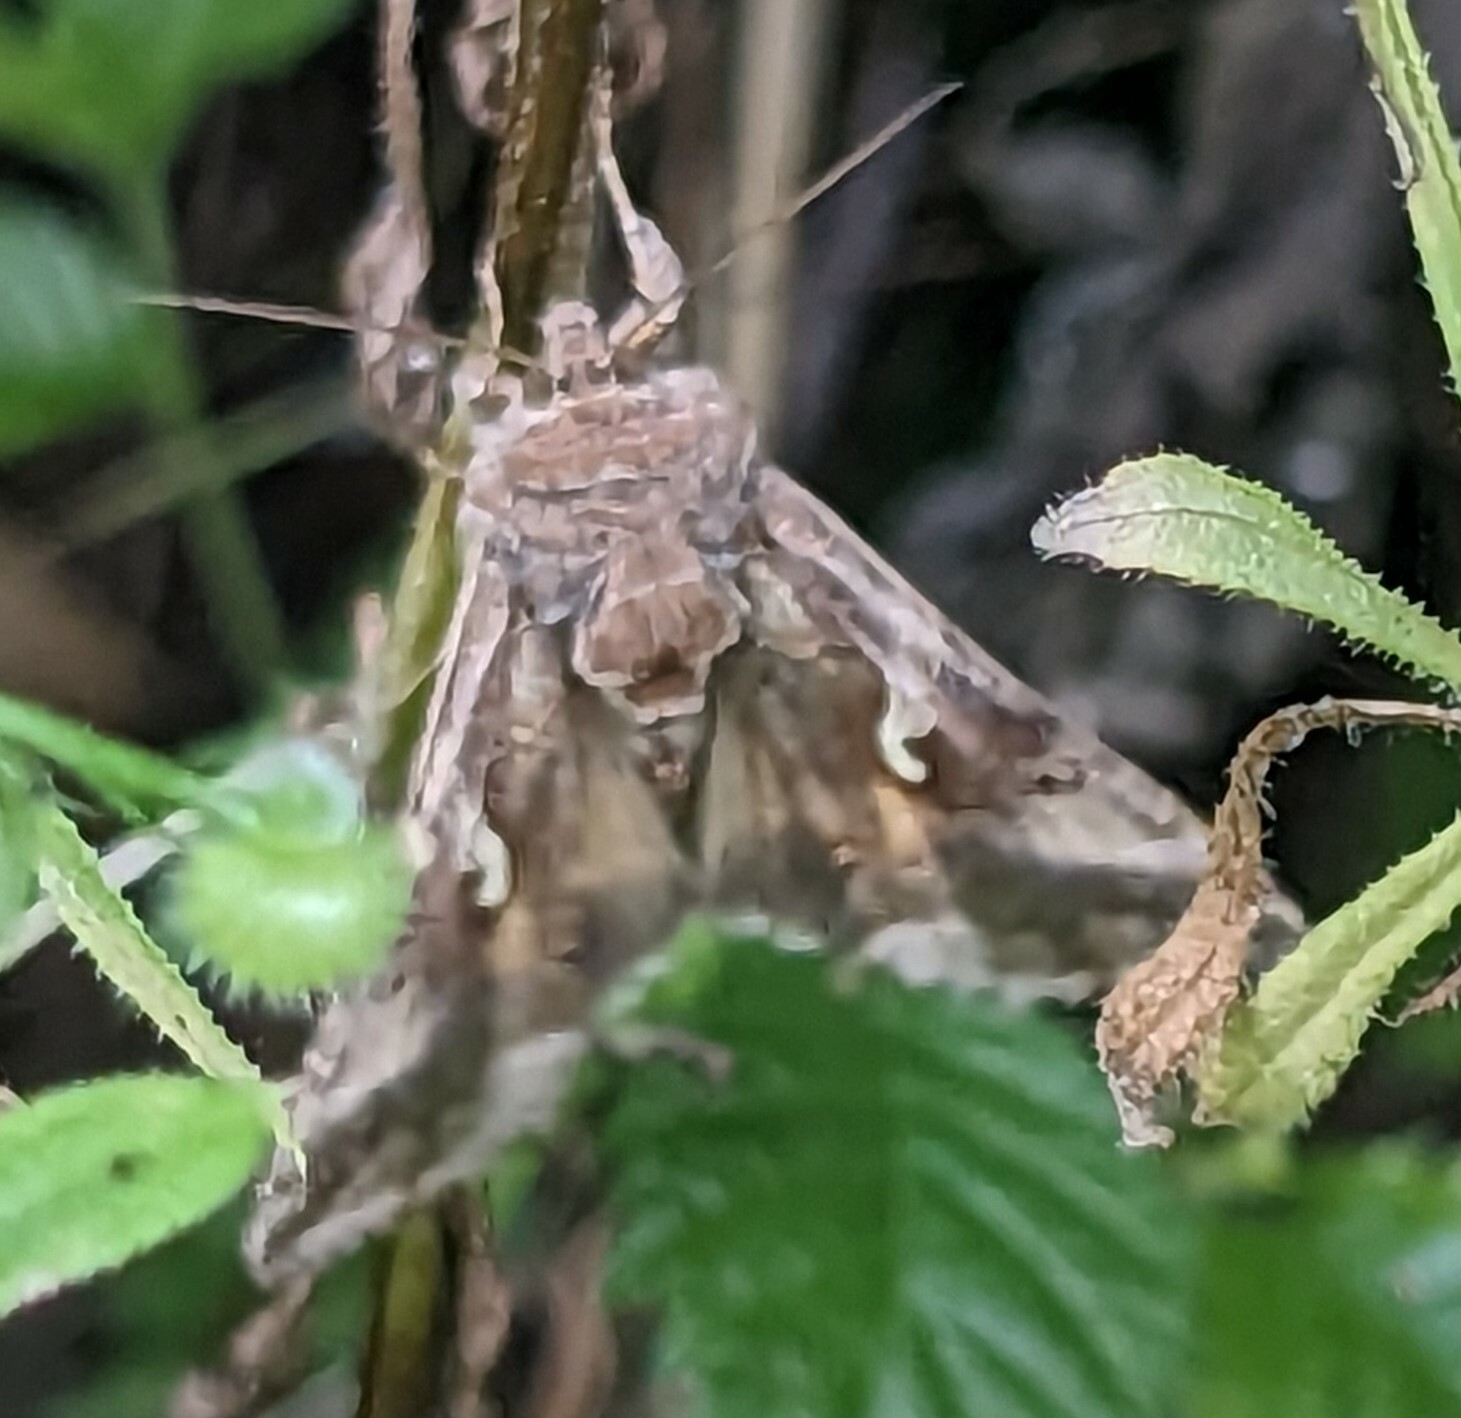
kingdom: Animalia
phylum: Arthropoda
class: Insecta
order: Lepidoptera
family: Noctuidae
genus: Autographa
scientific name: Autographa gamma
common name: Silver y
